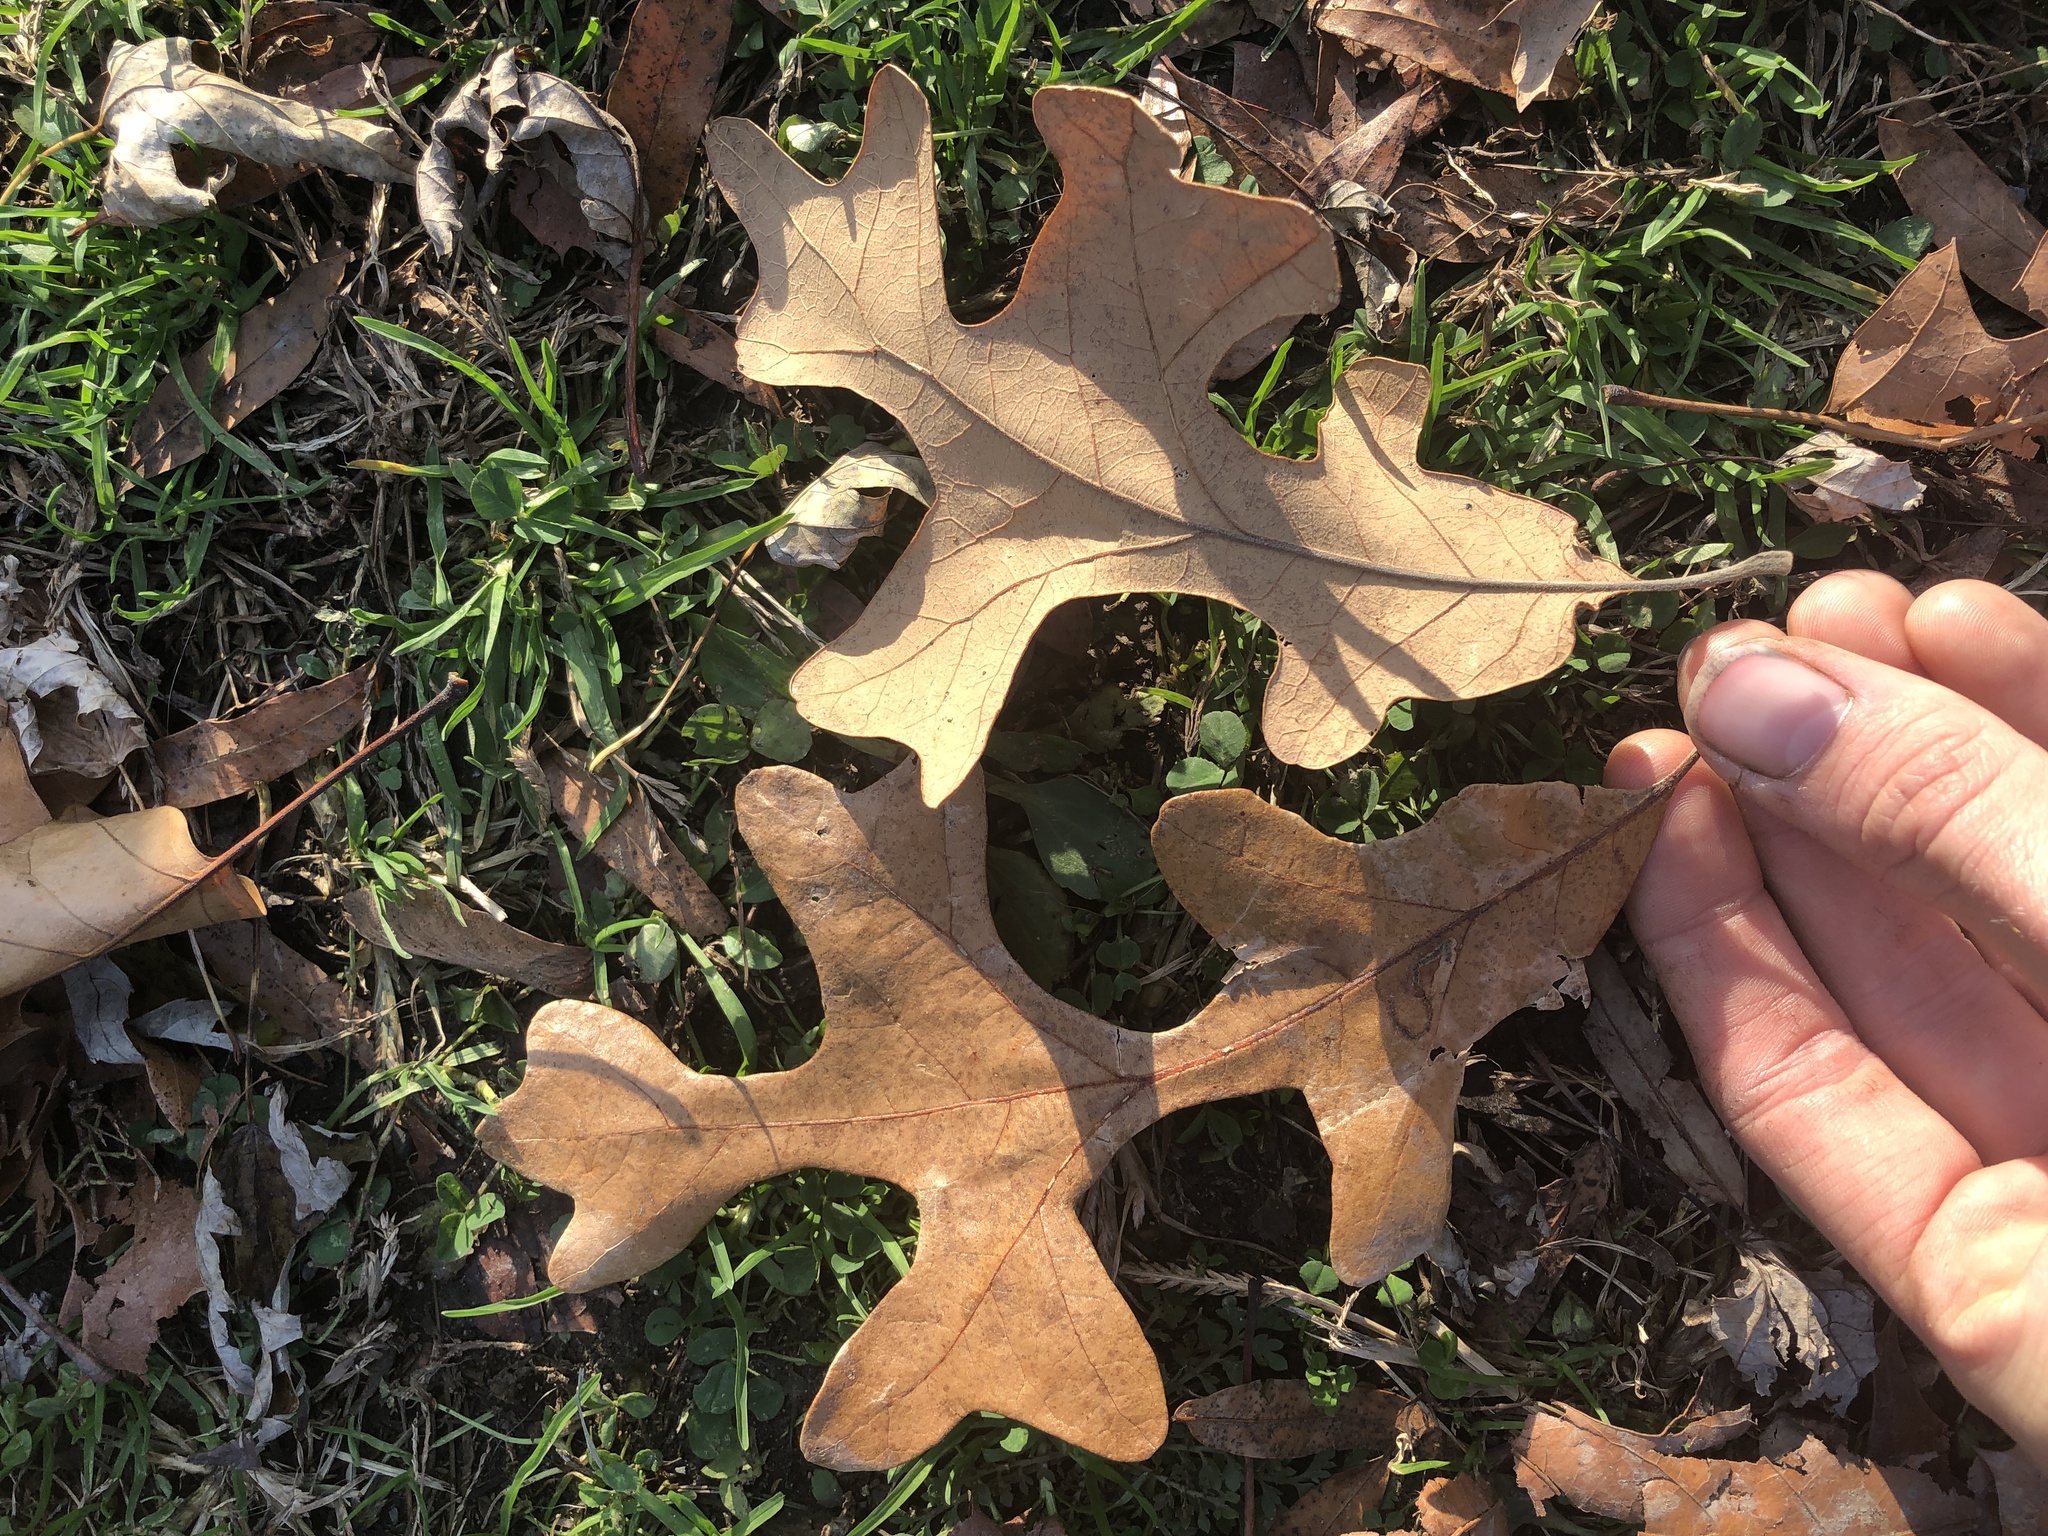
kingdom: Plantae
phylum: Tracheophyta
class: Magnoliopsida
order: Fagales
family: Fagaceae
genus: Quercus
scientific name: Quercus stellata
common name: Post oak
